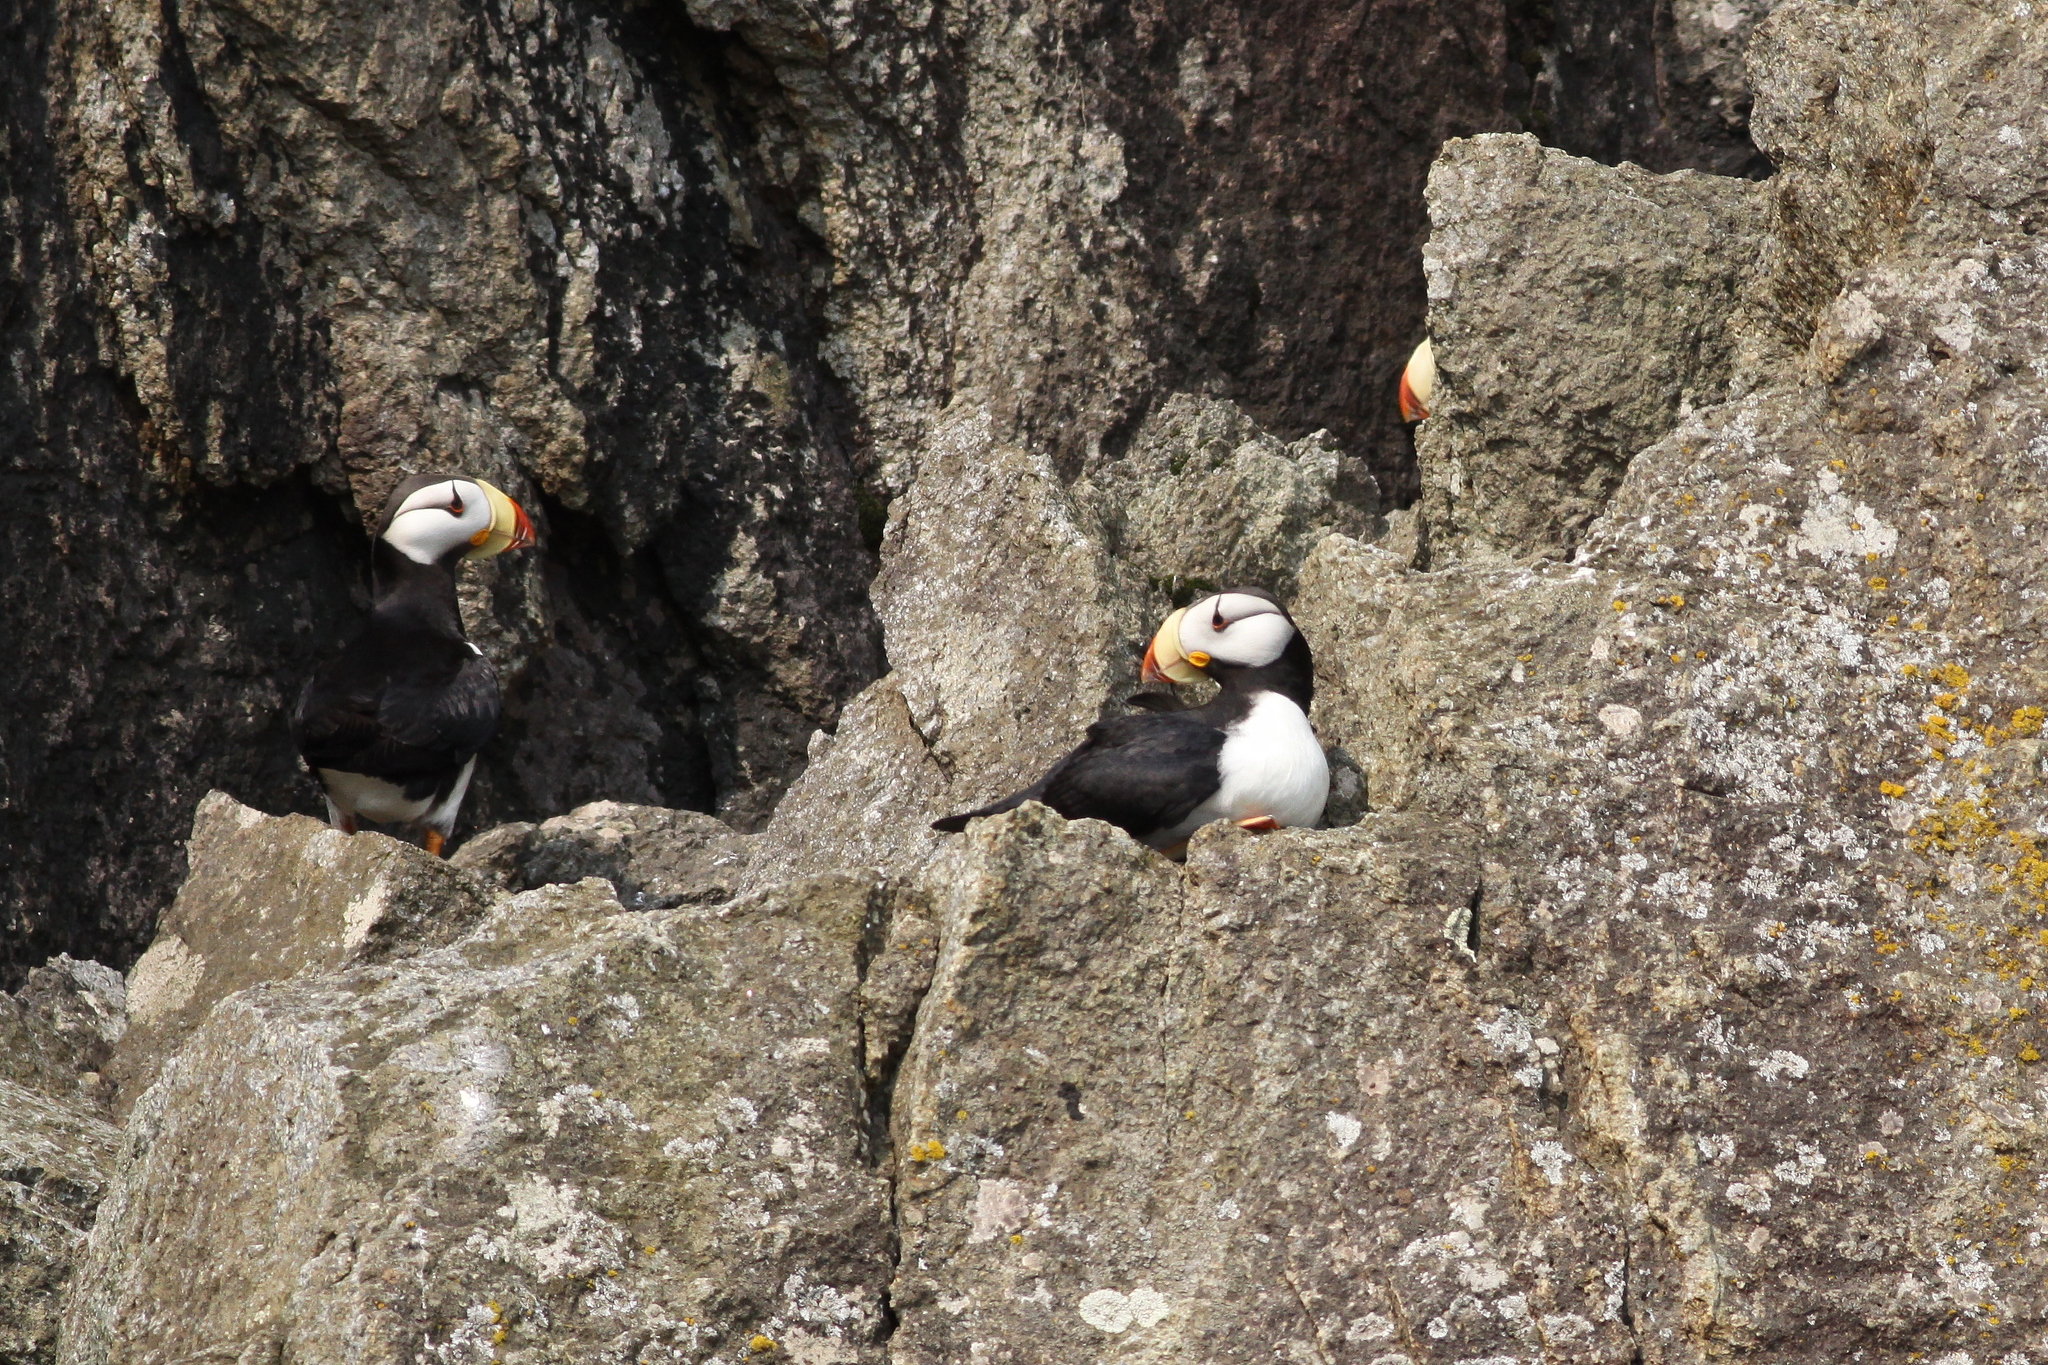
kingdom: Animalia
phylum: Chordata
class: Aves
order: Charadriiformes
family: Alcidae
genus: Fratercula
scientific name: Fratercula corniculata
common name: Horned puffin
